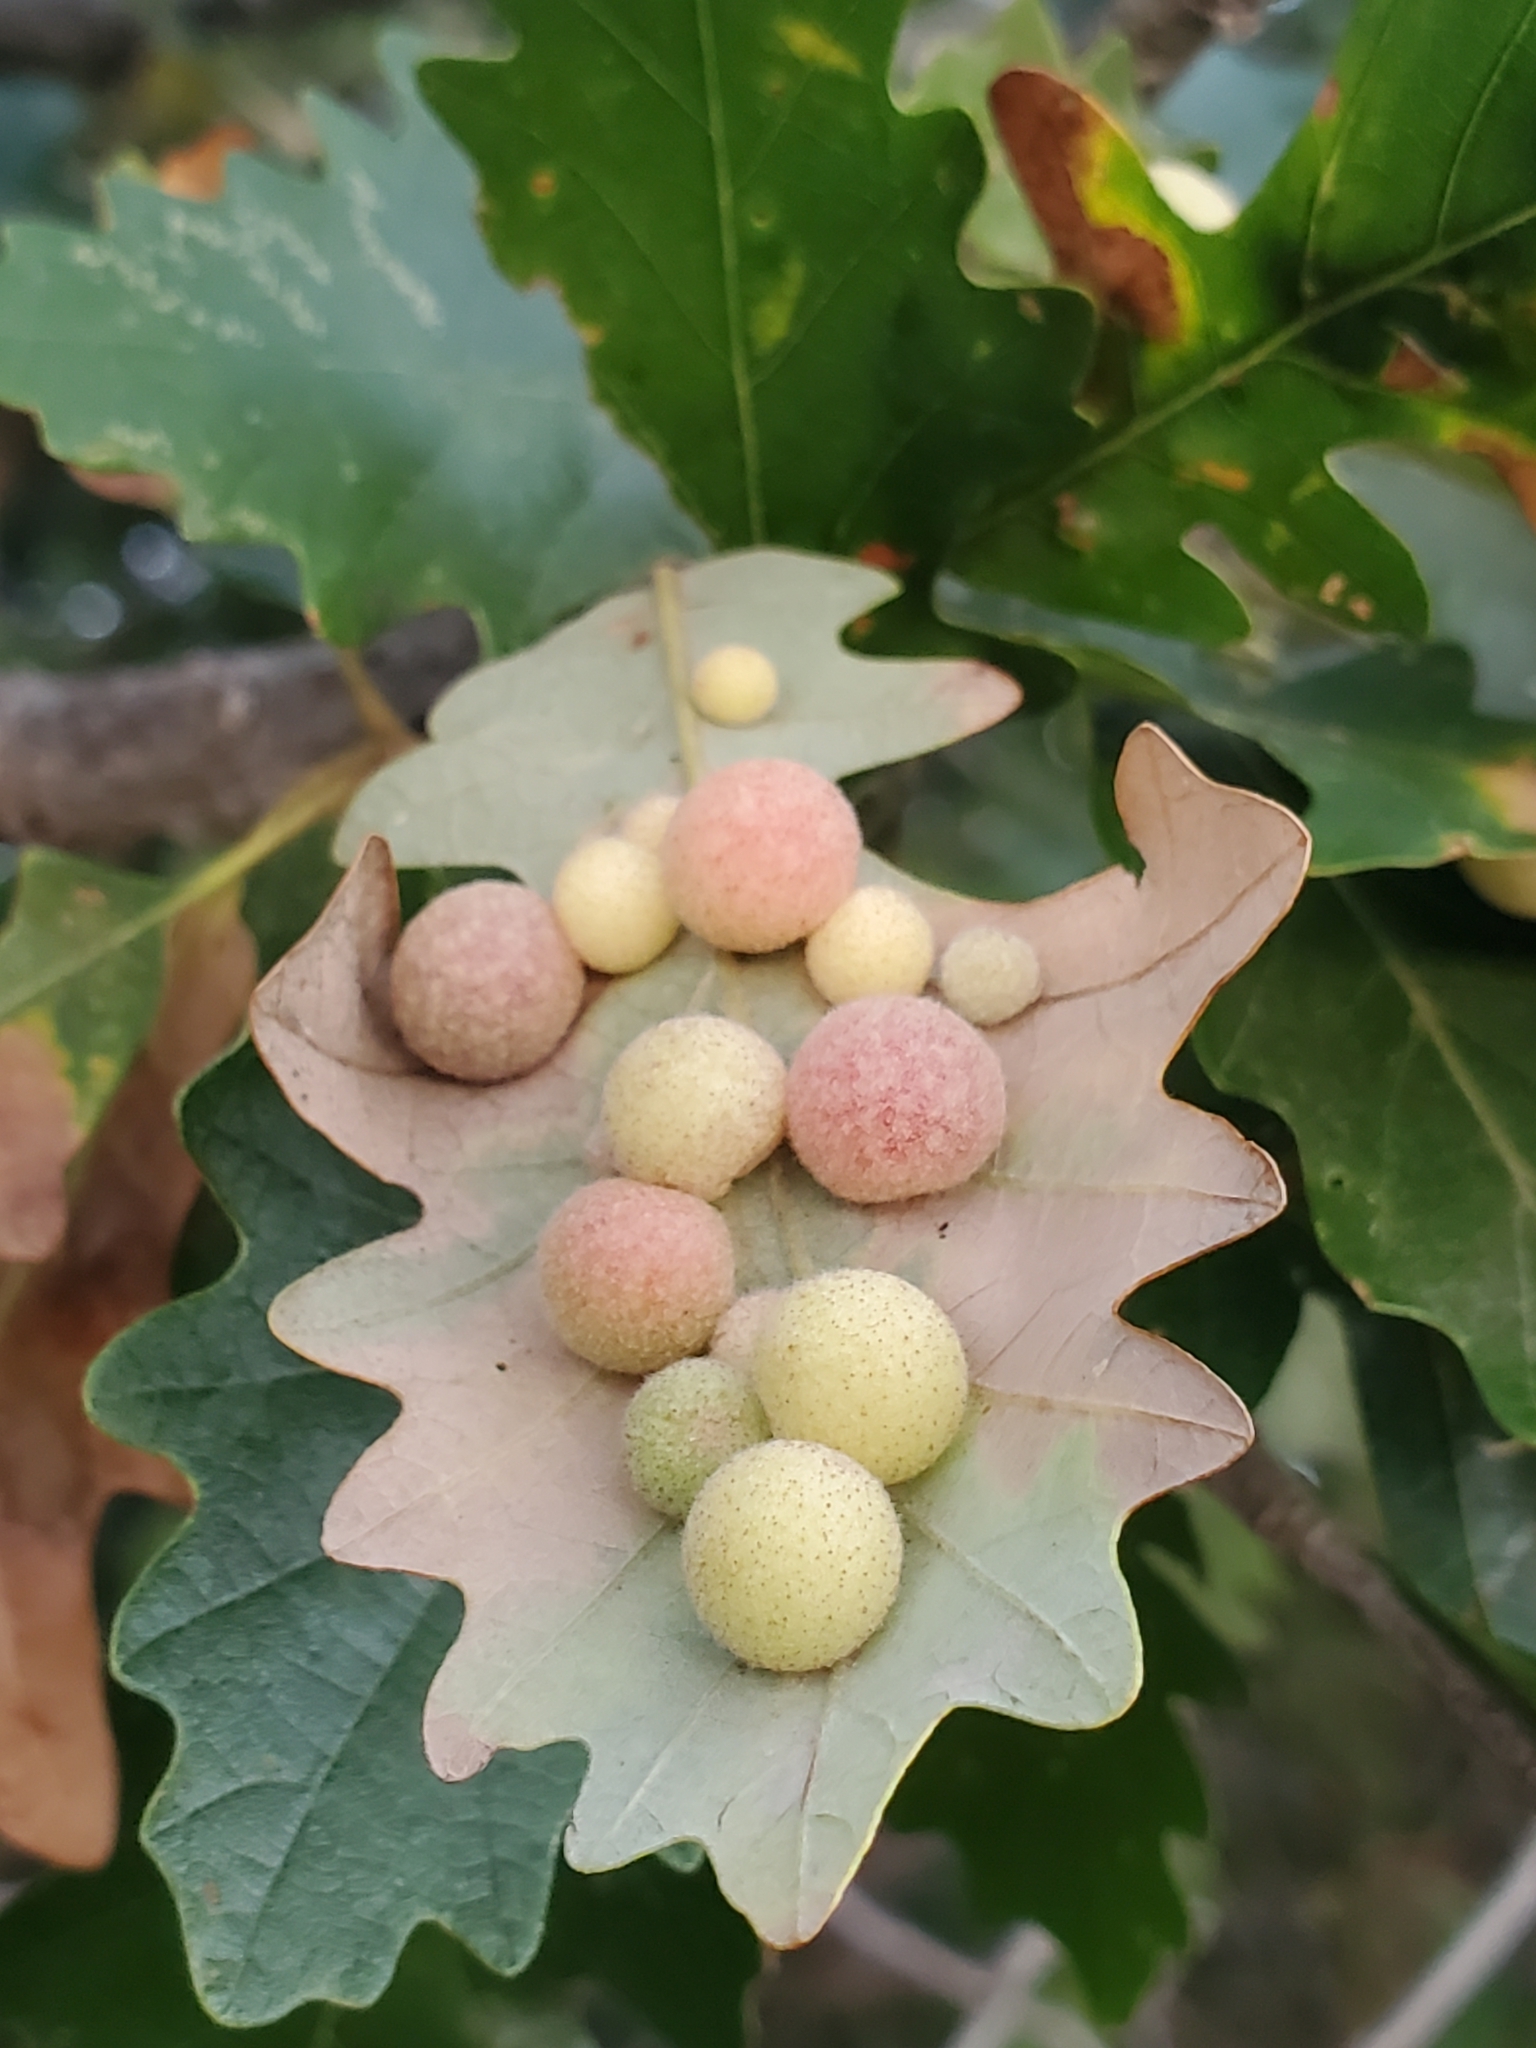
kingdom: Animalia
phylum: Arthropoda
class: Insecta
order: Hymenoptera
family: Cynipidae
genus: Philonix
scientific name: Philonix fulvicollis
